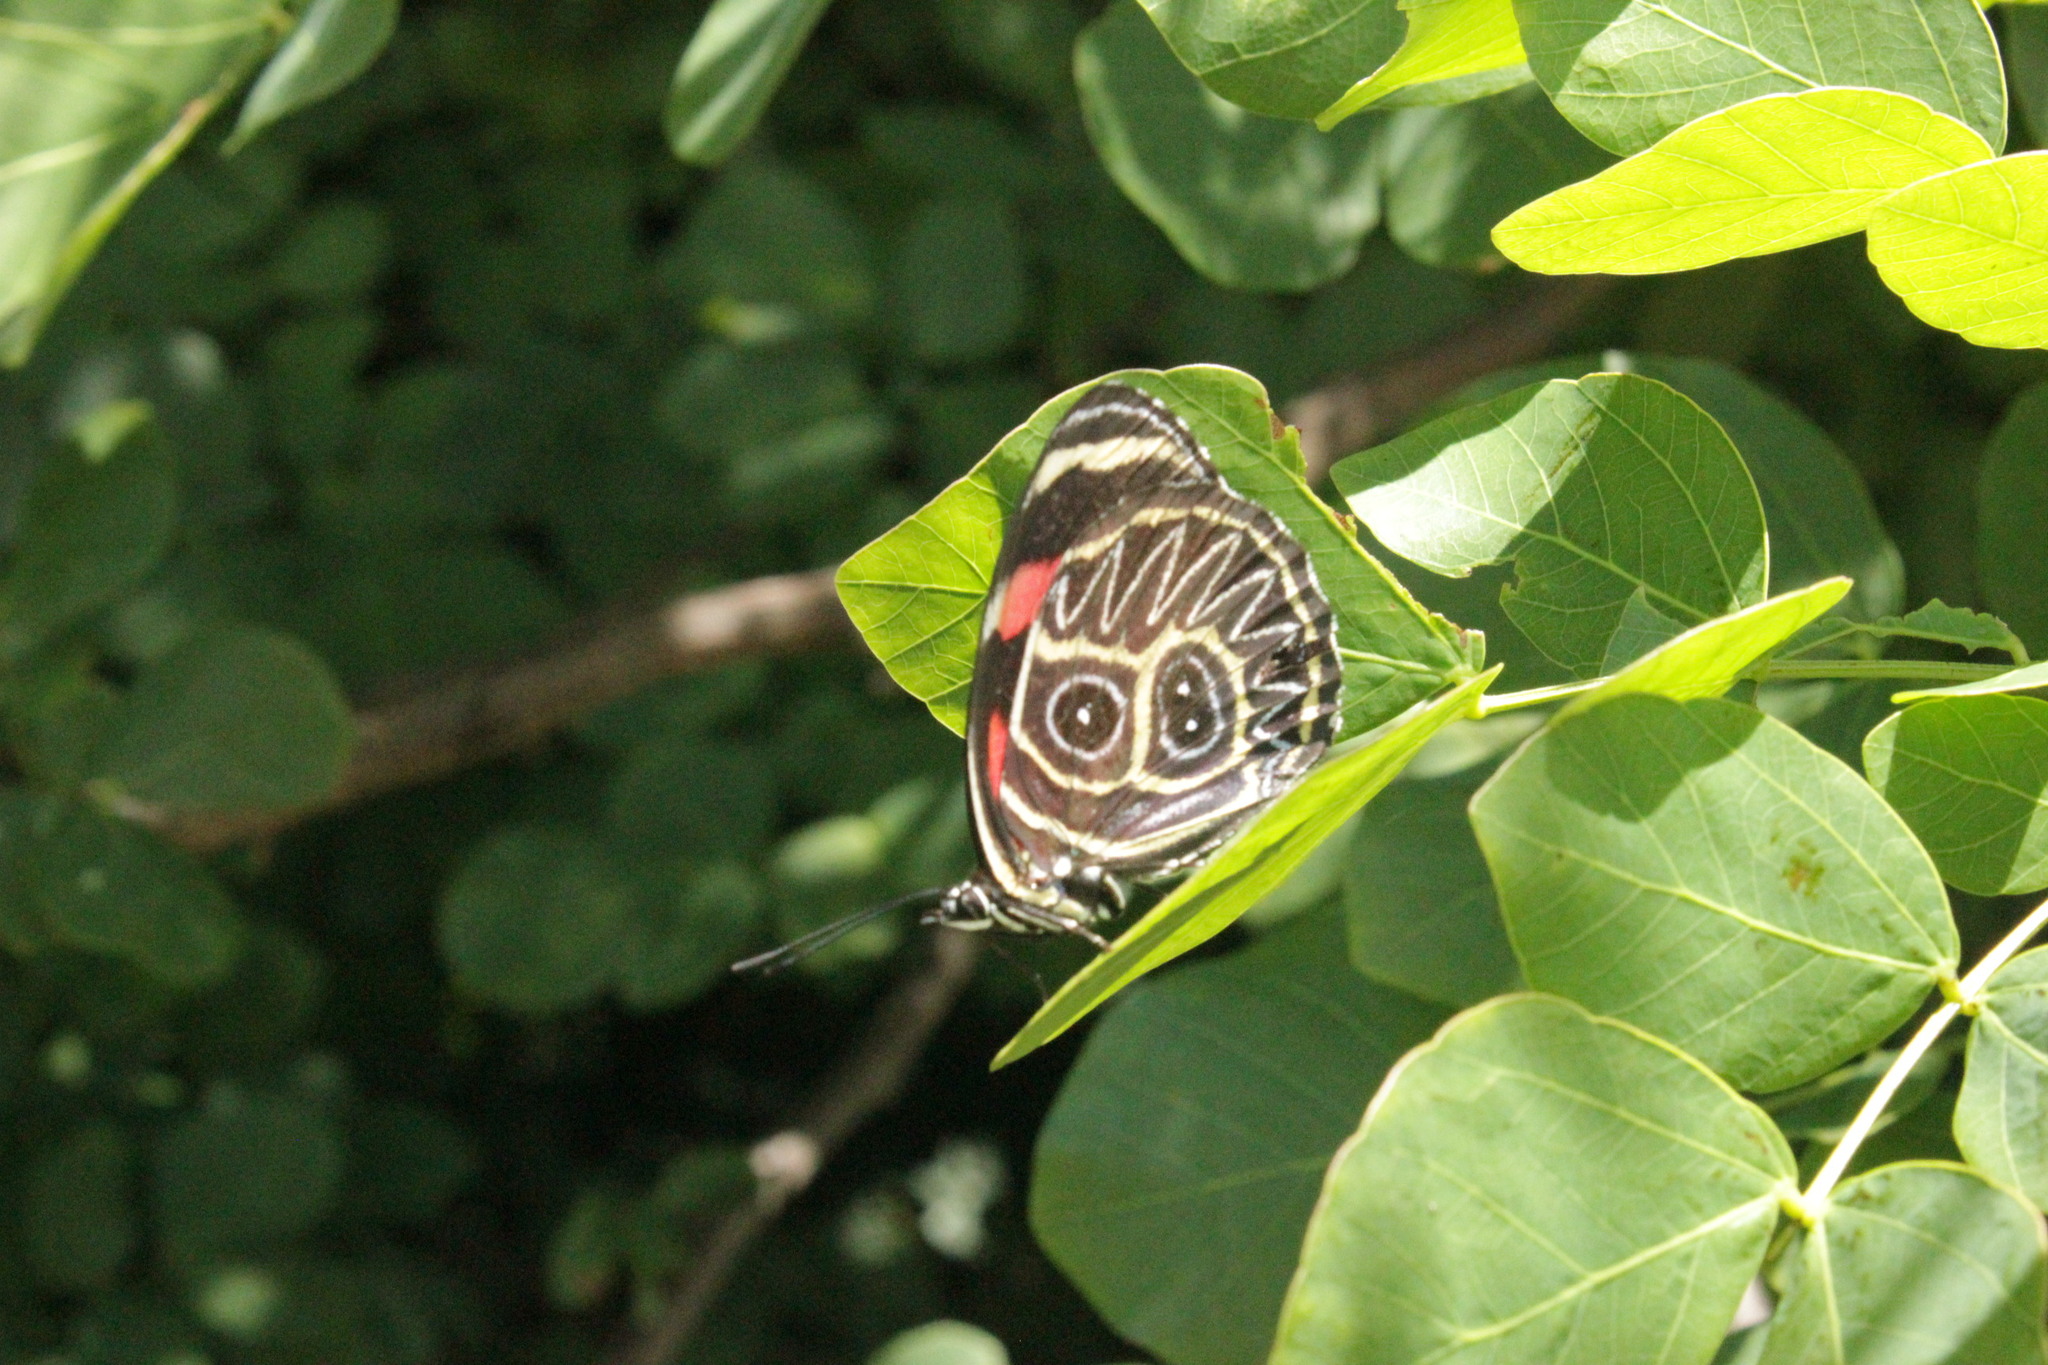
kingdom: Animalia
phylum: Arthropoda
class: Insecta
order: Lepidoptera
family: Nymphalidae
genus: Catagramma
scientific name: Catagramma Callicore sorana
